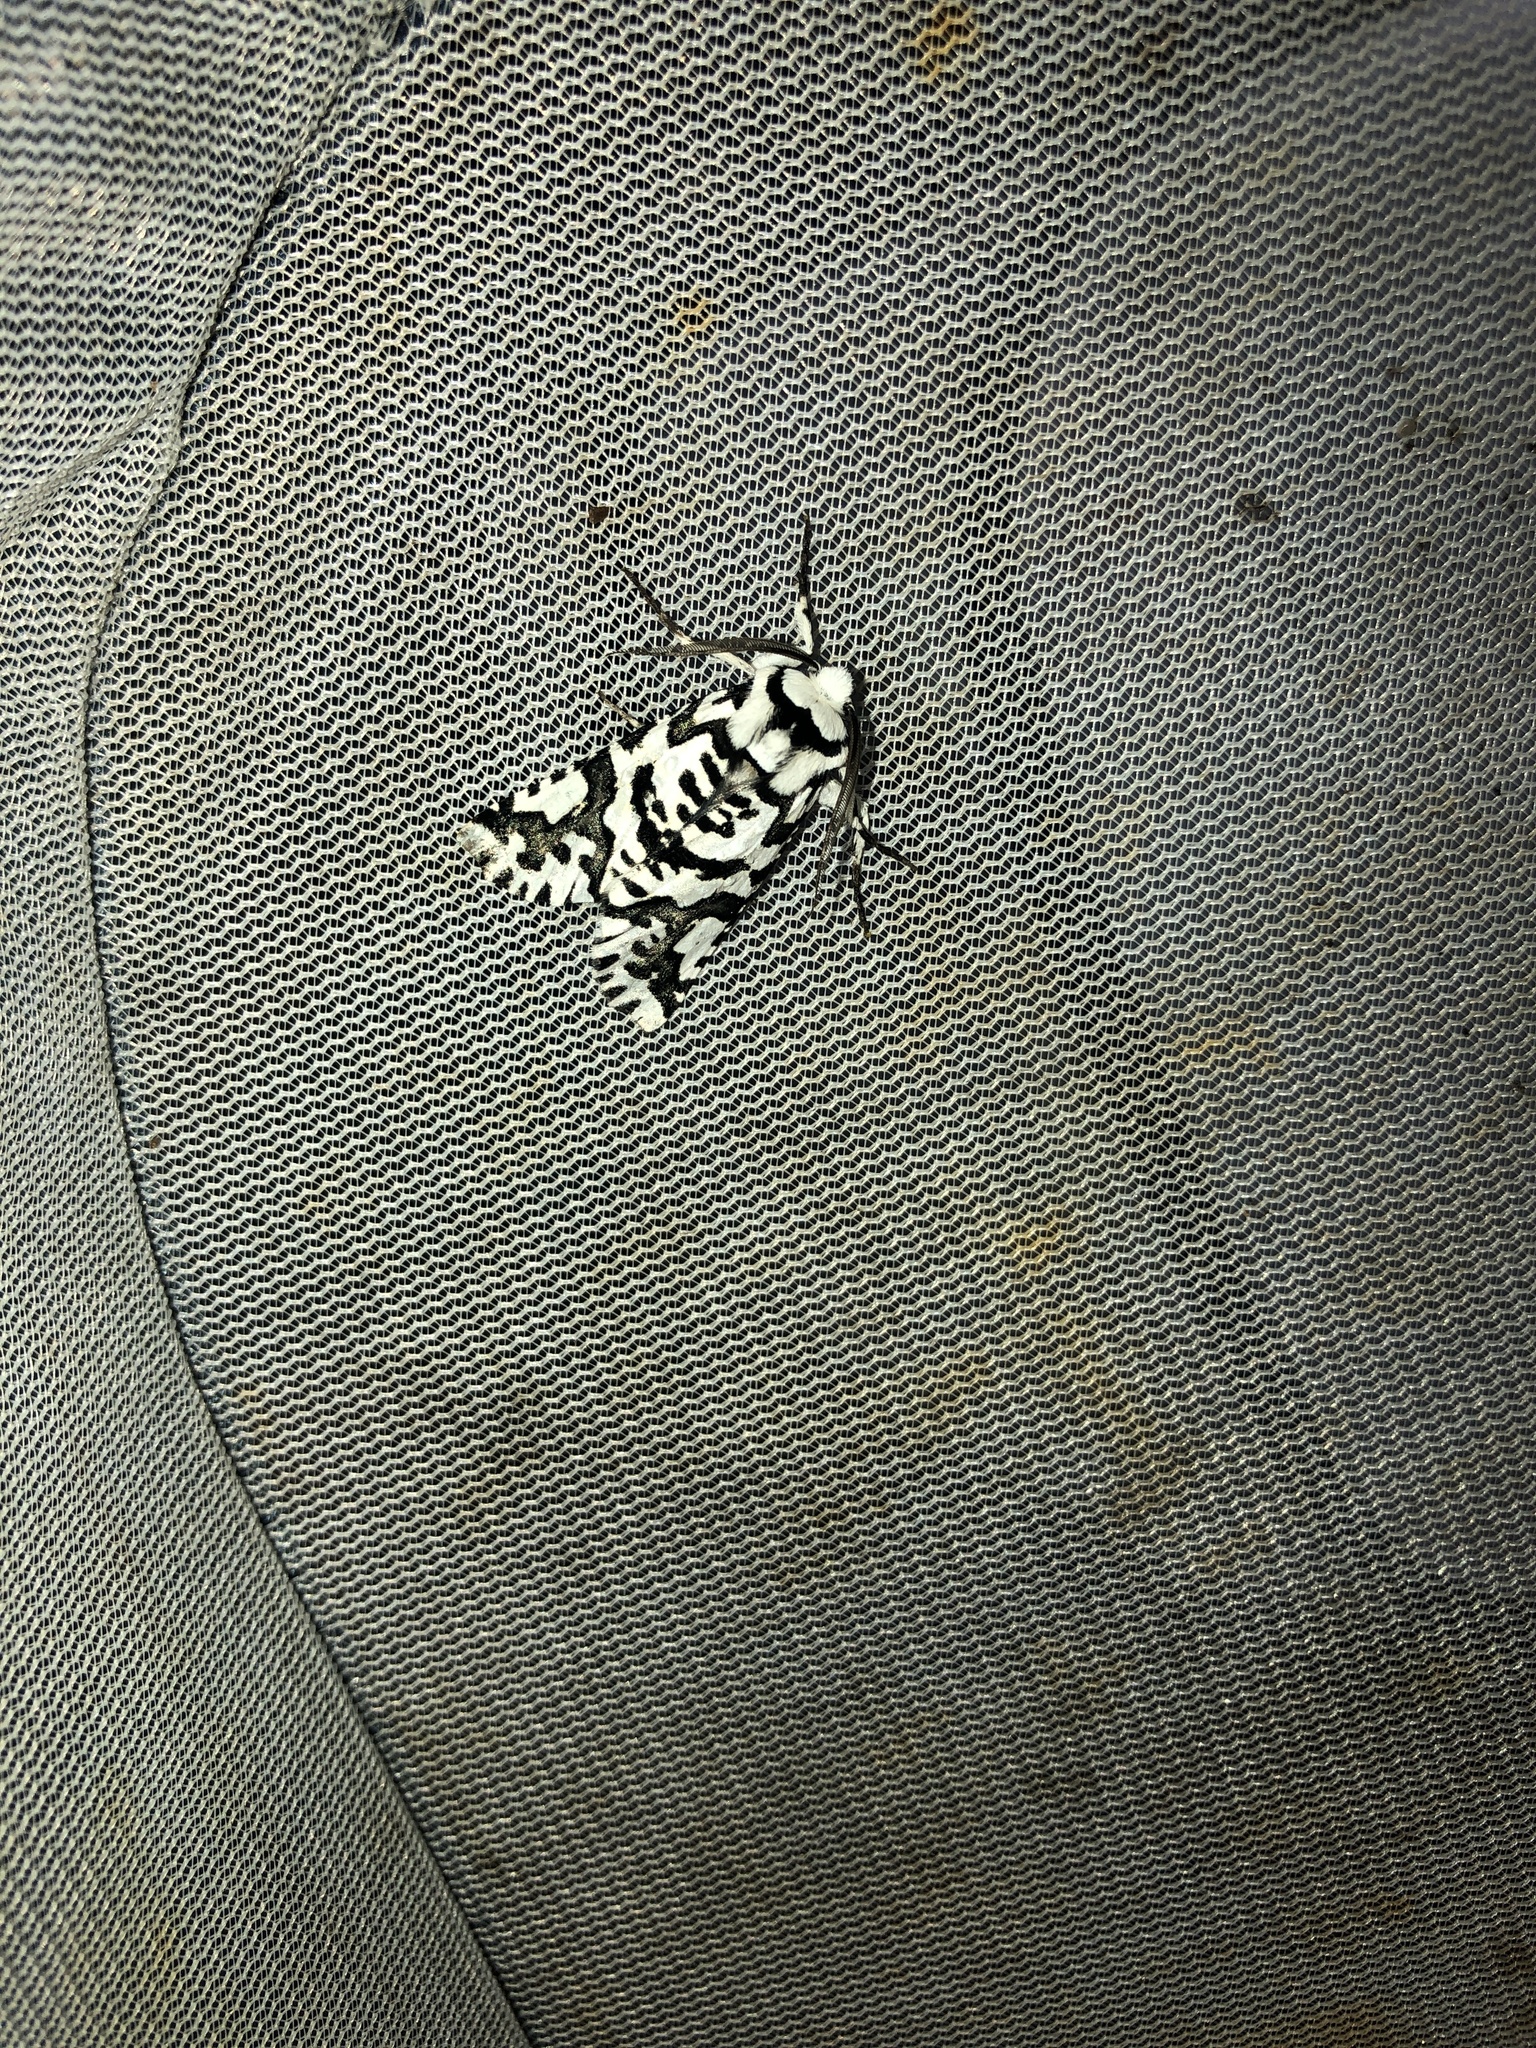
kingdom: Animalia
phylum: Arthropoda
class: Insecta
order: Lepidoptera
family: Geometridae
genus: Declana
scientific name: Declana
